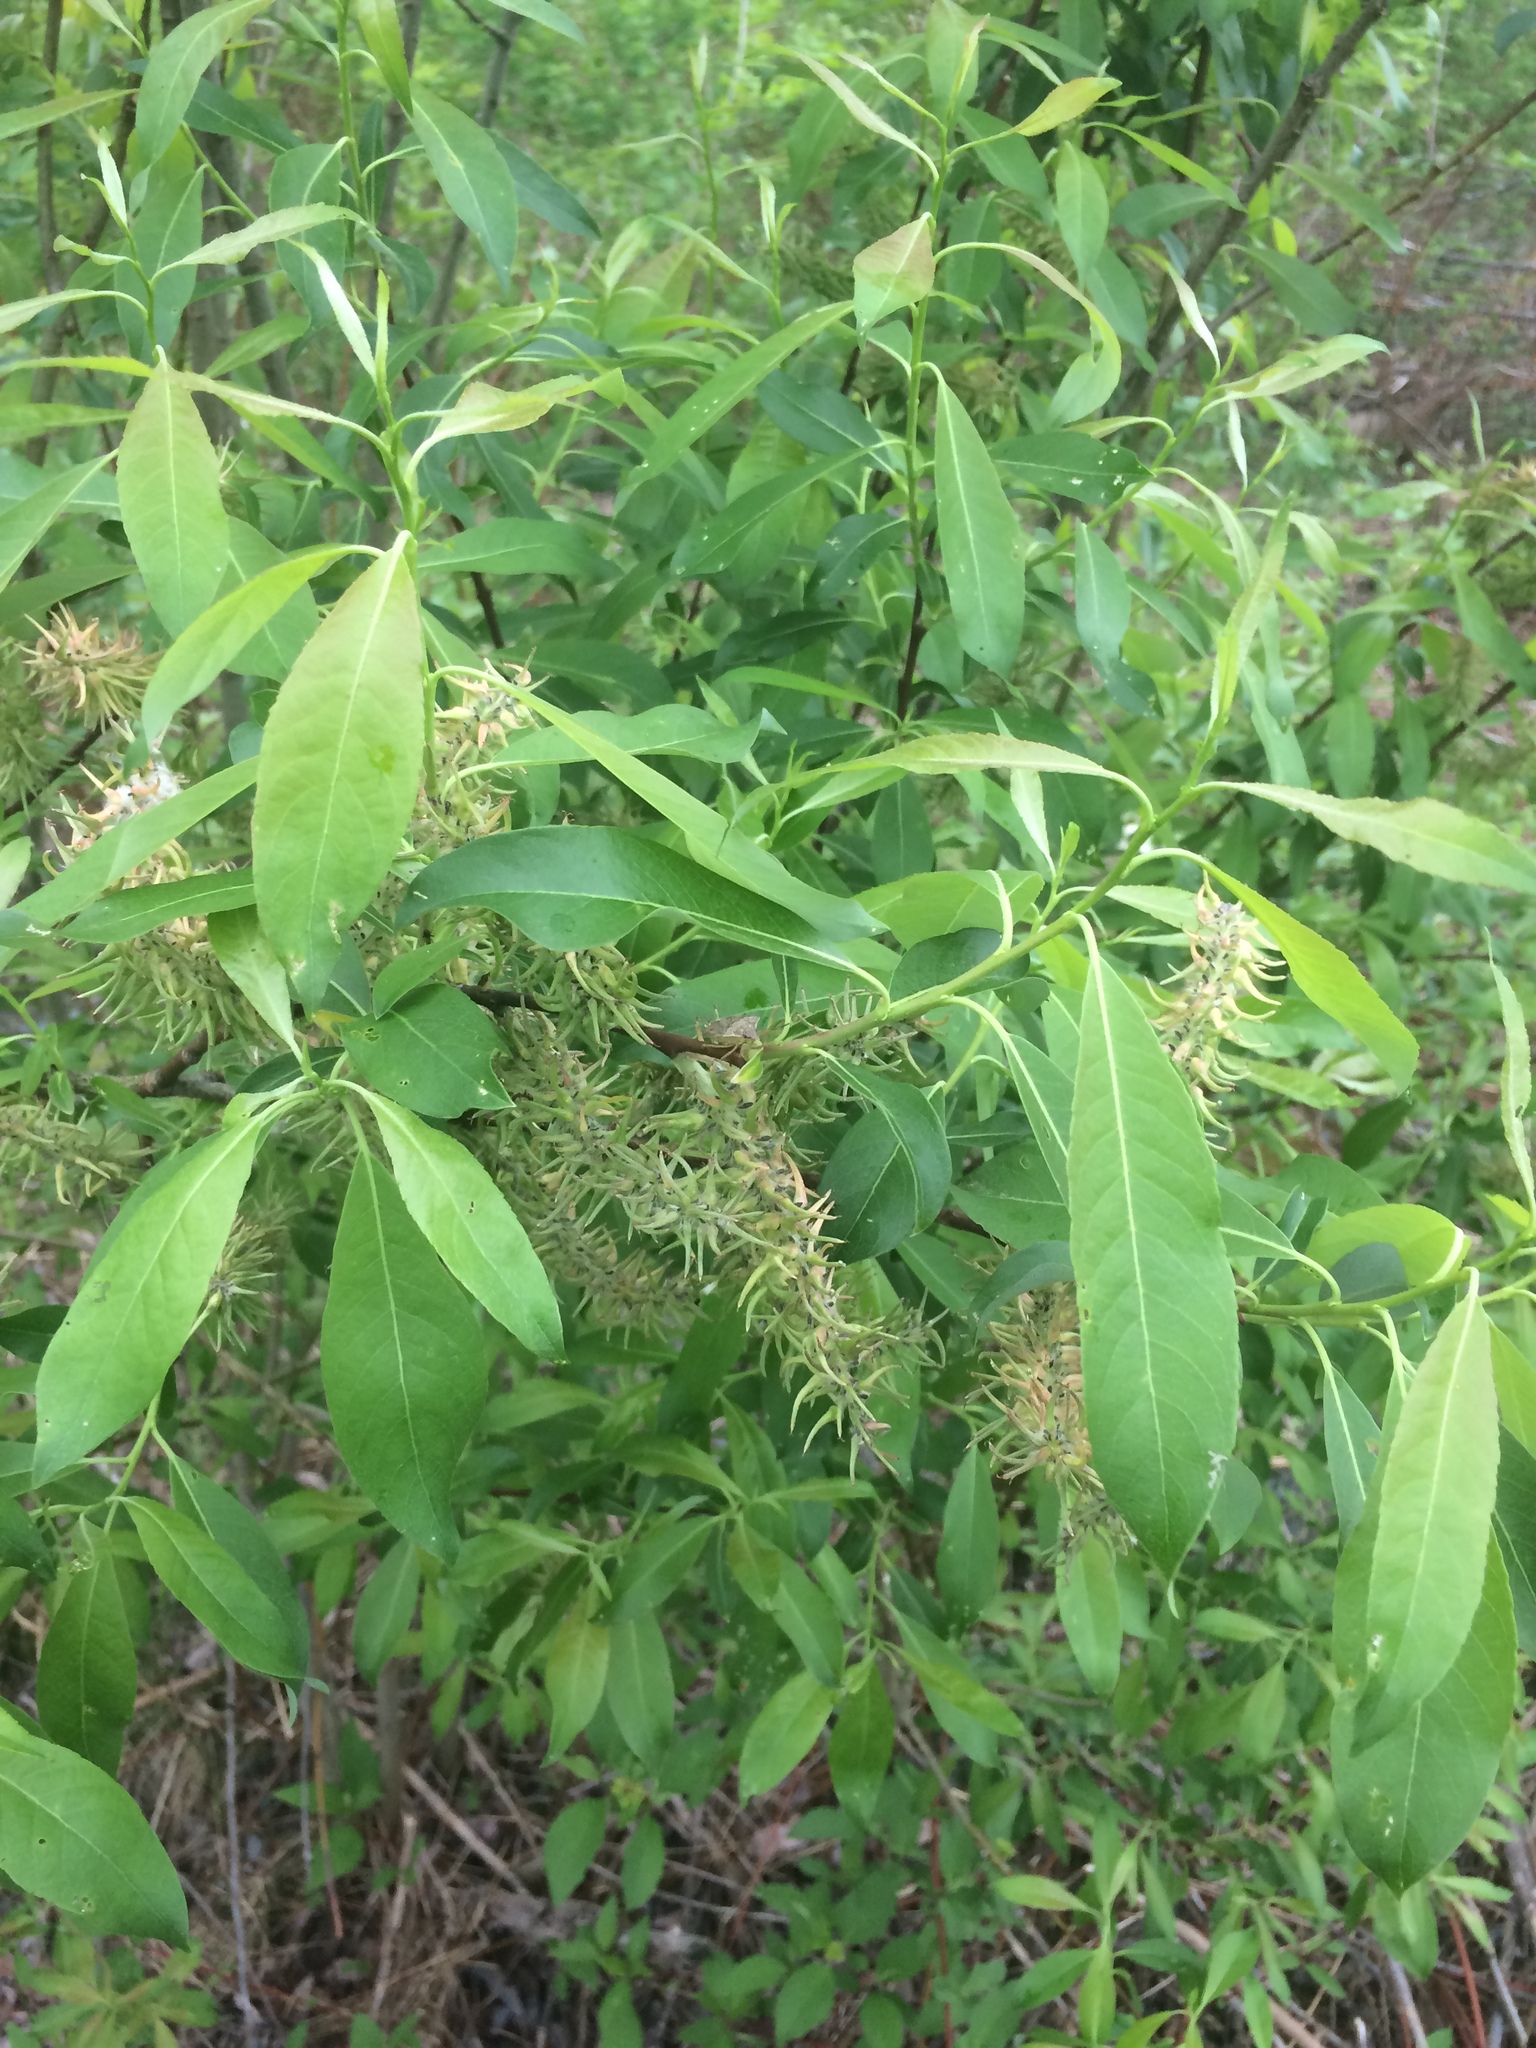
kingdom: Plantae
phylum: Tracheophyta
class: Magnoliopsida
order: Malpighiales
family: Salicaceae
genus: Salix
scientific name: Salix discolor
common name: Glaucous willow
